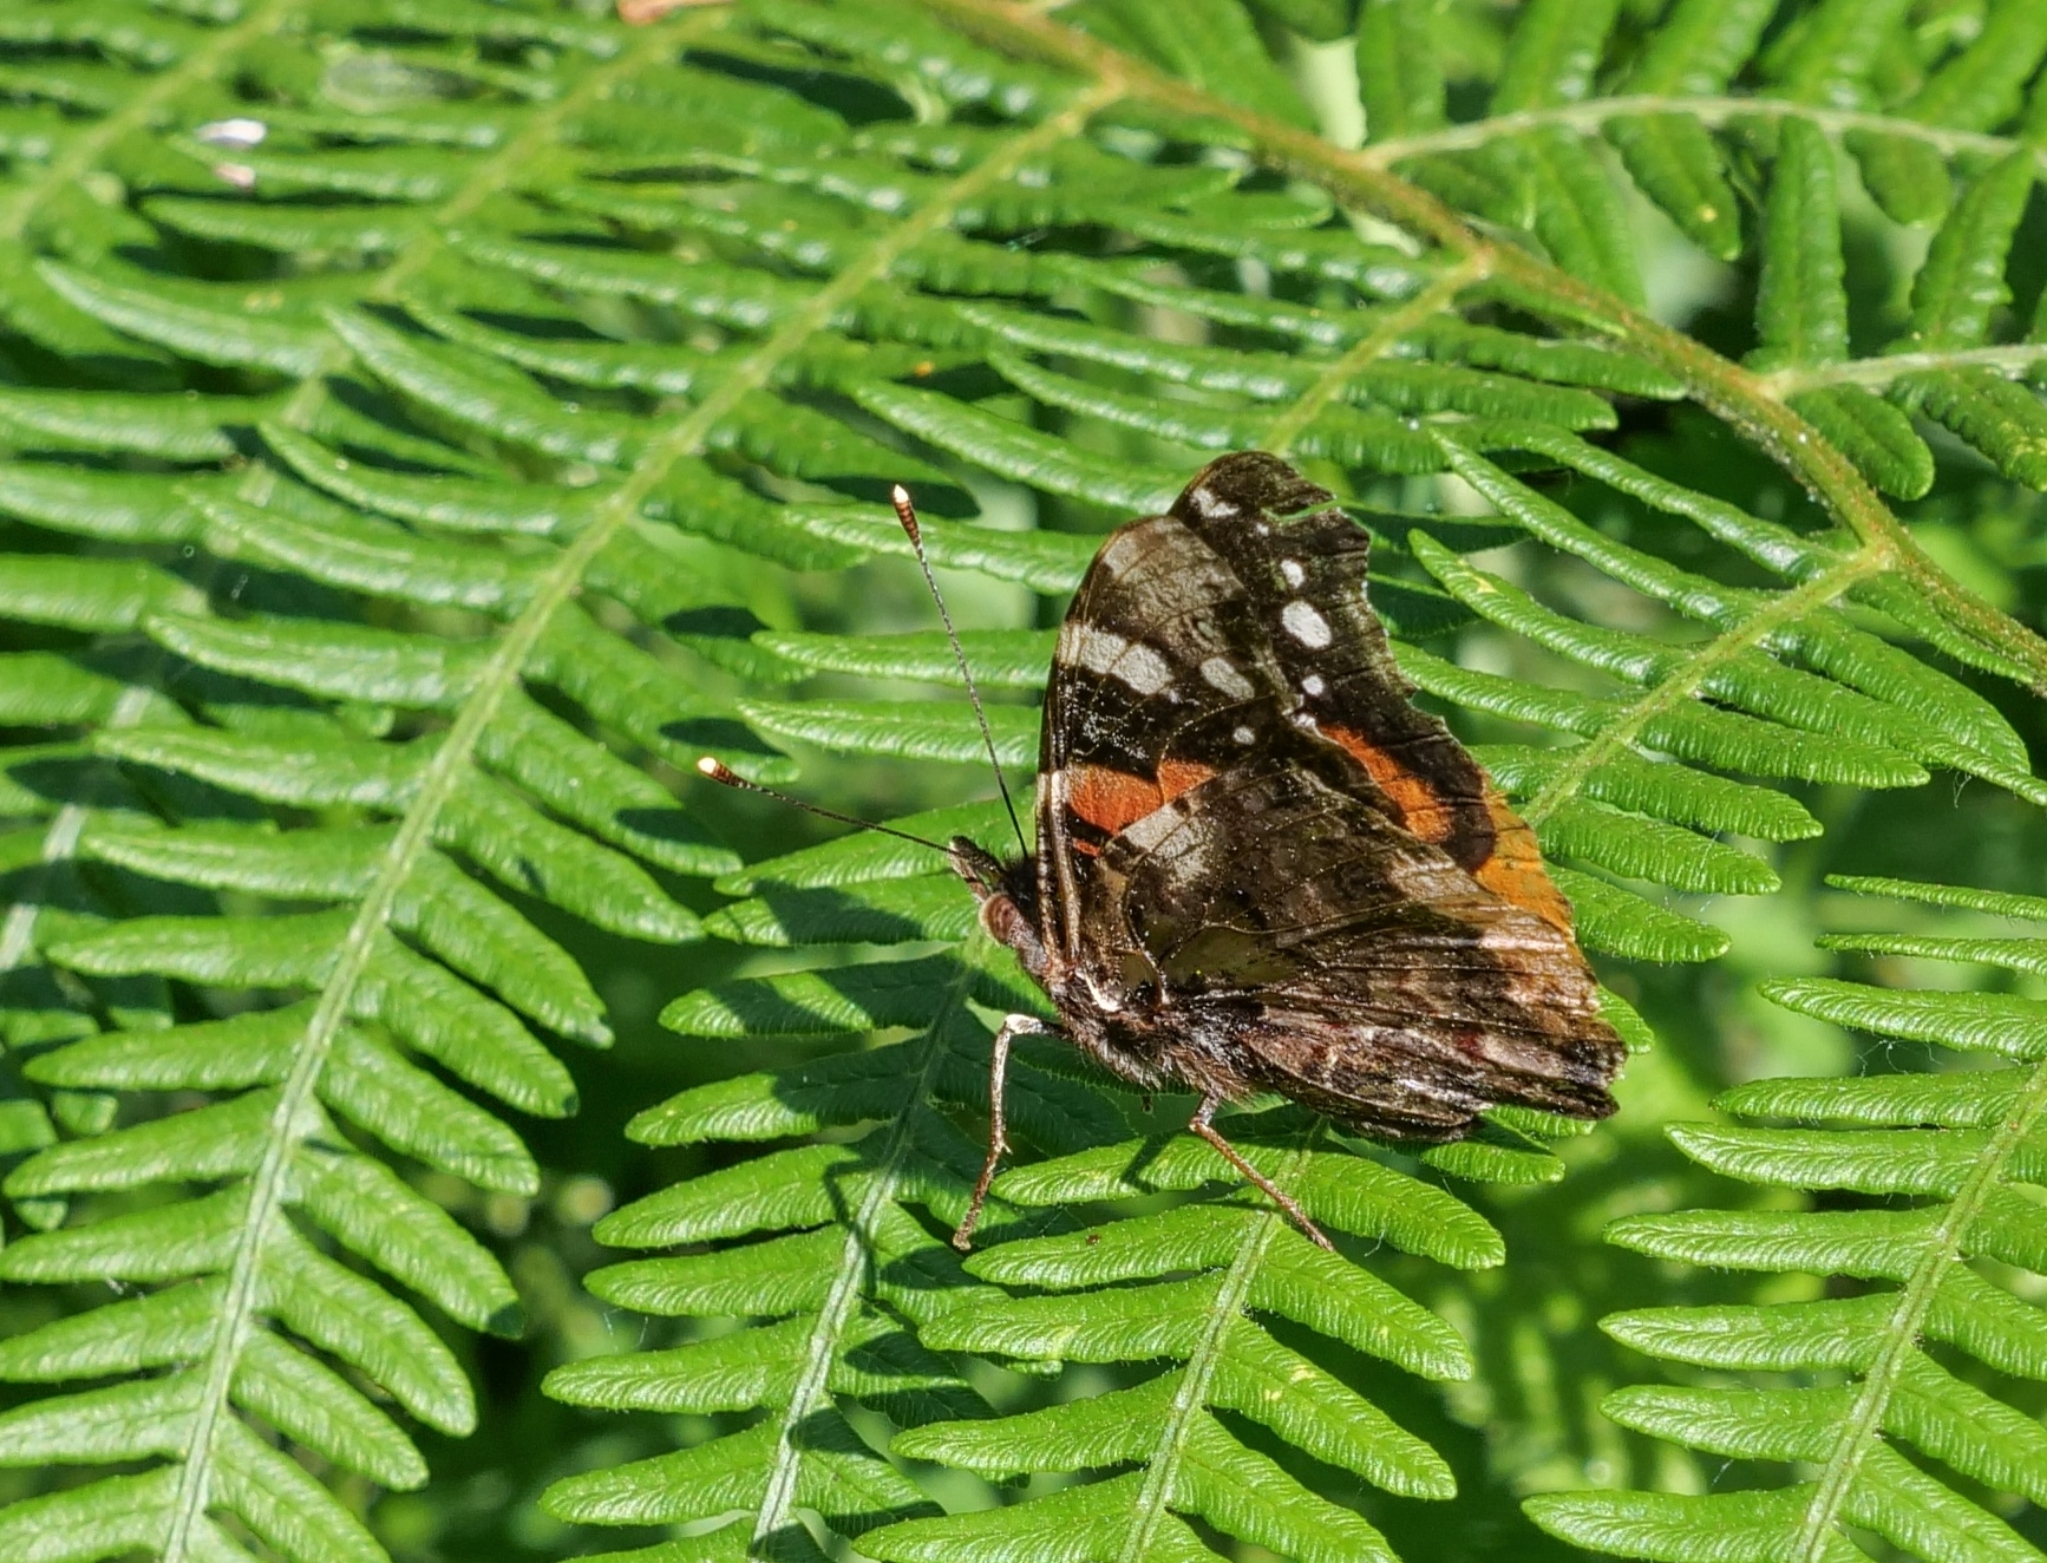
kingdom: Animalia
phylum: Arthropoda
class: Insecta
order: Lepidoptera
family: Nymphalidae
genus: Vanessa
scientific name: Vanessa atalanta
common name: Red admiral
